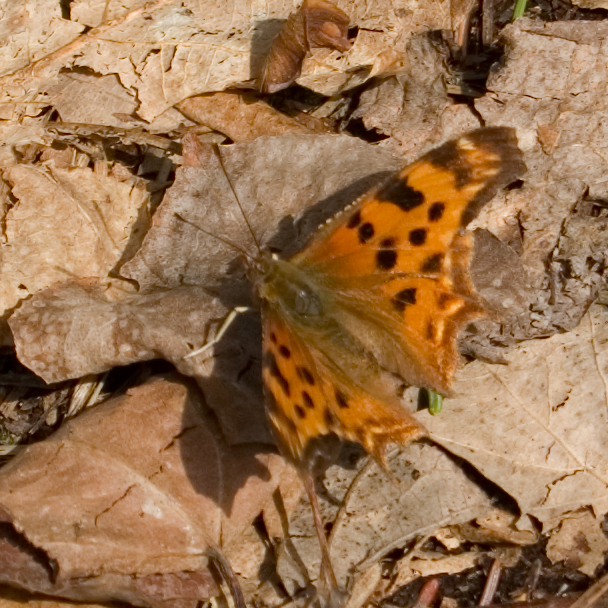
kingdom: Animalia
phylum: Arthropoda
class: Insecta
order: Lepidoptera
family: Nymphalidae
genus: Polygonia
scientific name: Polygonia satyrus
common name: Satyr angle wing
